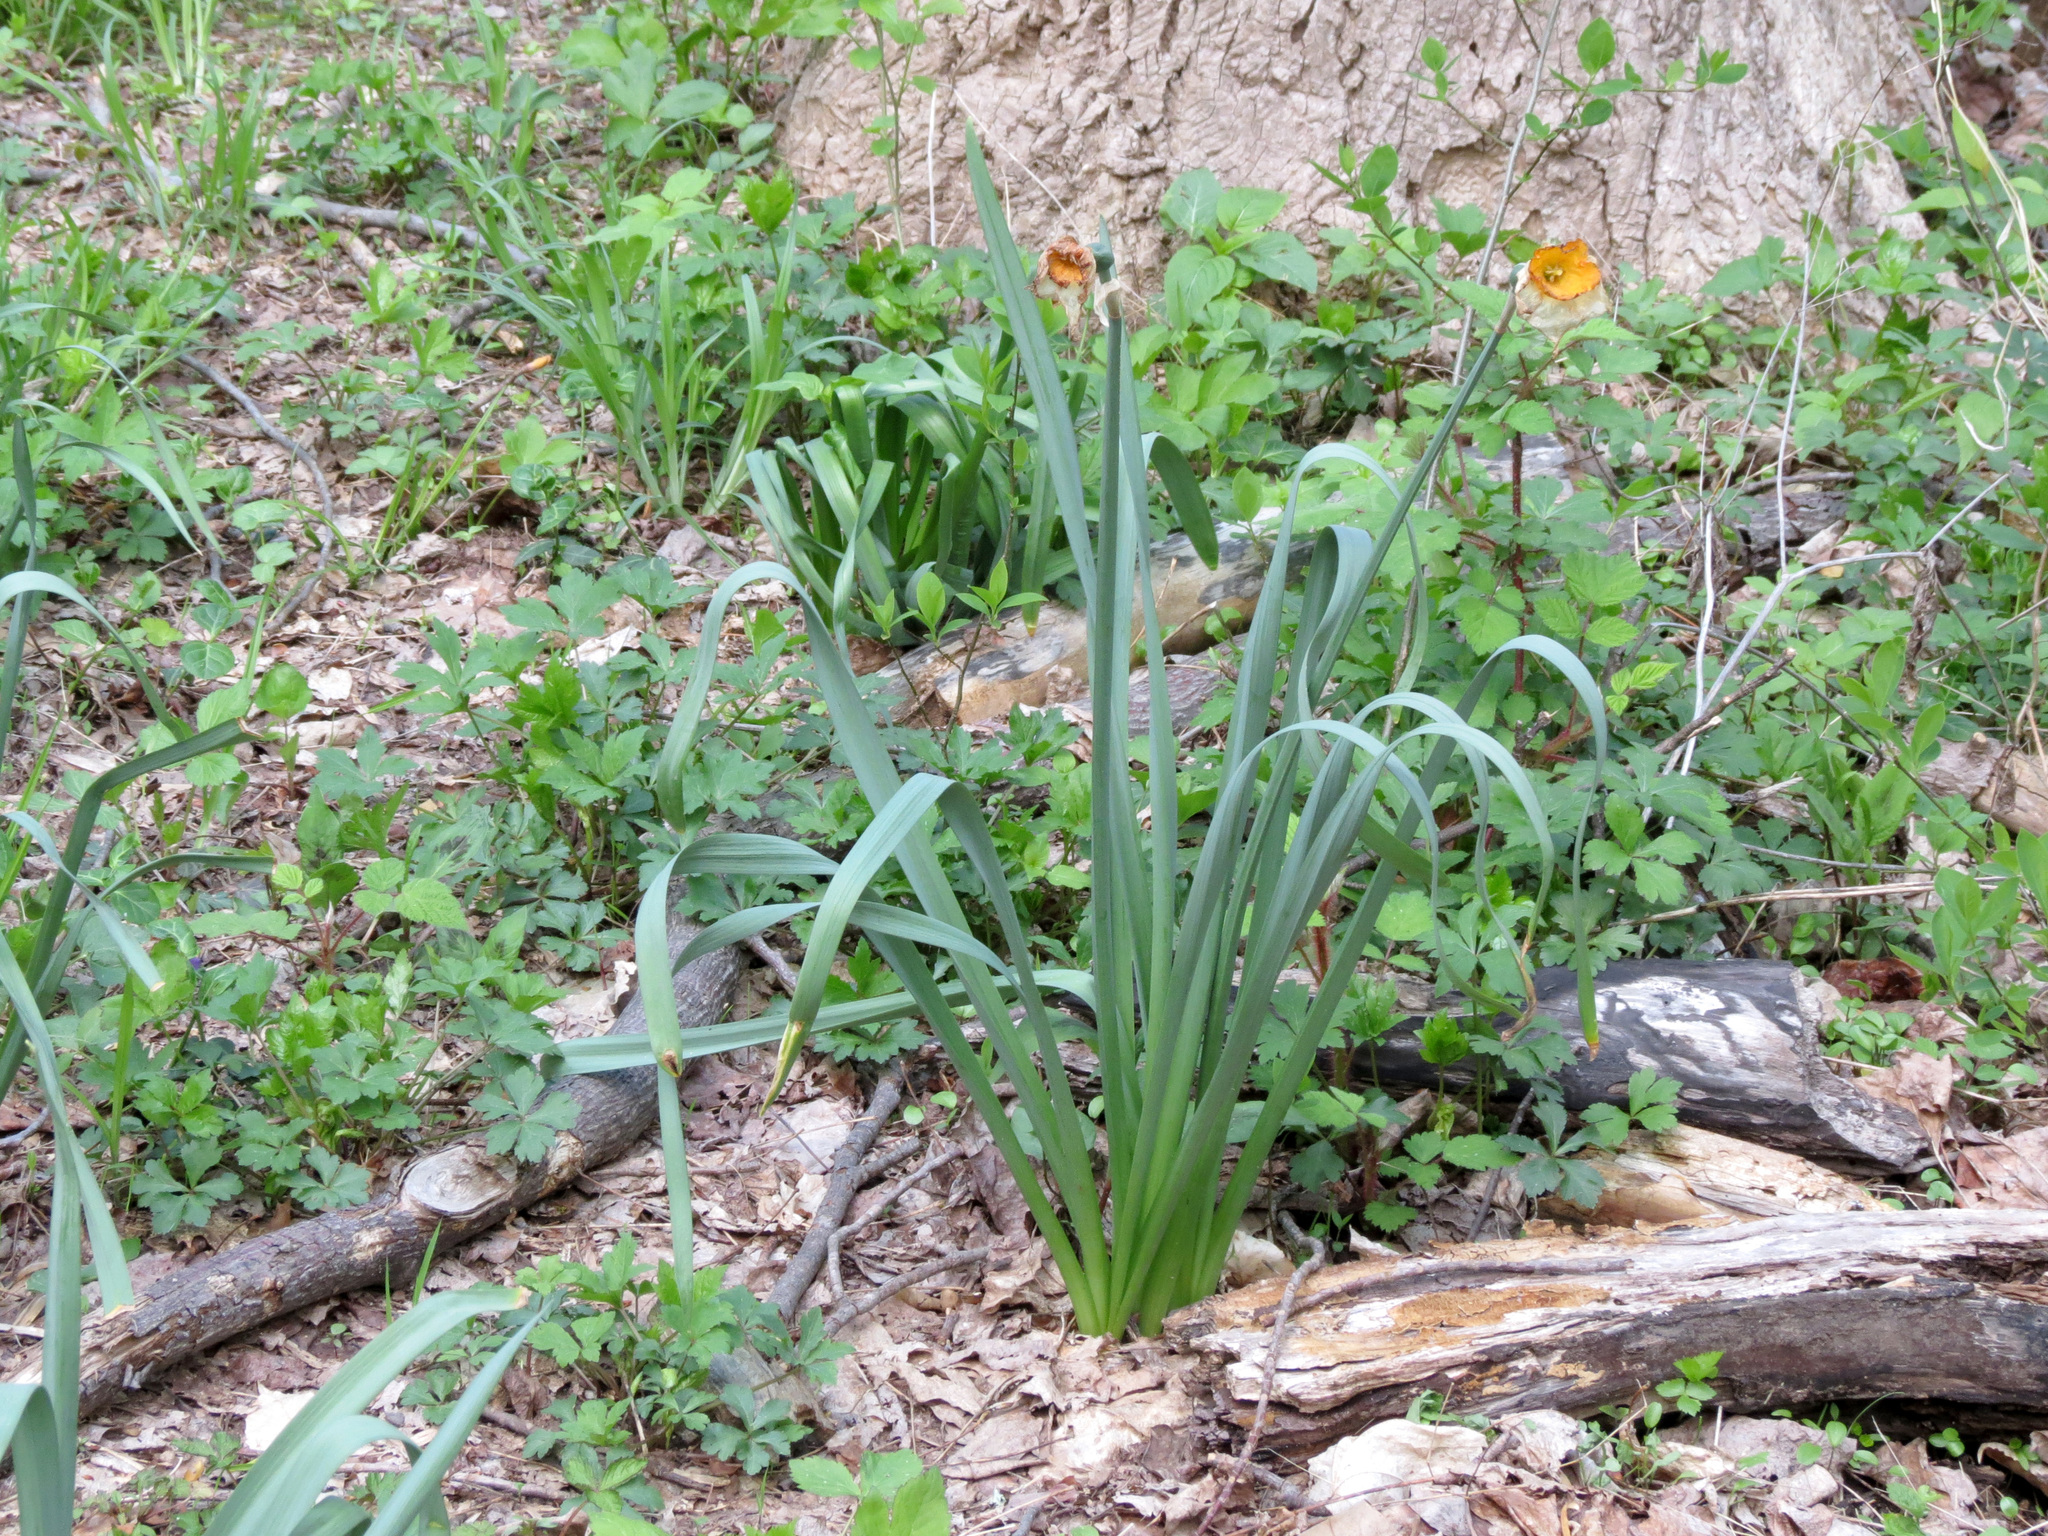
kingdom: Plantae
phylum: Tracheophyta
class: Liliopsida
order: Asparagales
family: Amaryllidaceae
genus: Narcissus
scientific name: Narcissus poeticus
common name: Pheasant's-eye daffodil
